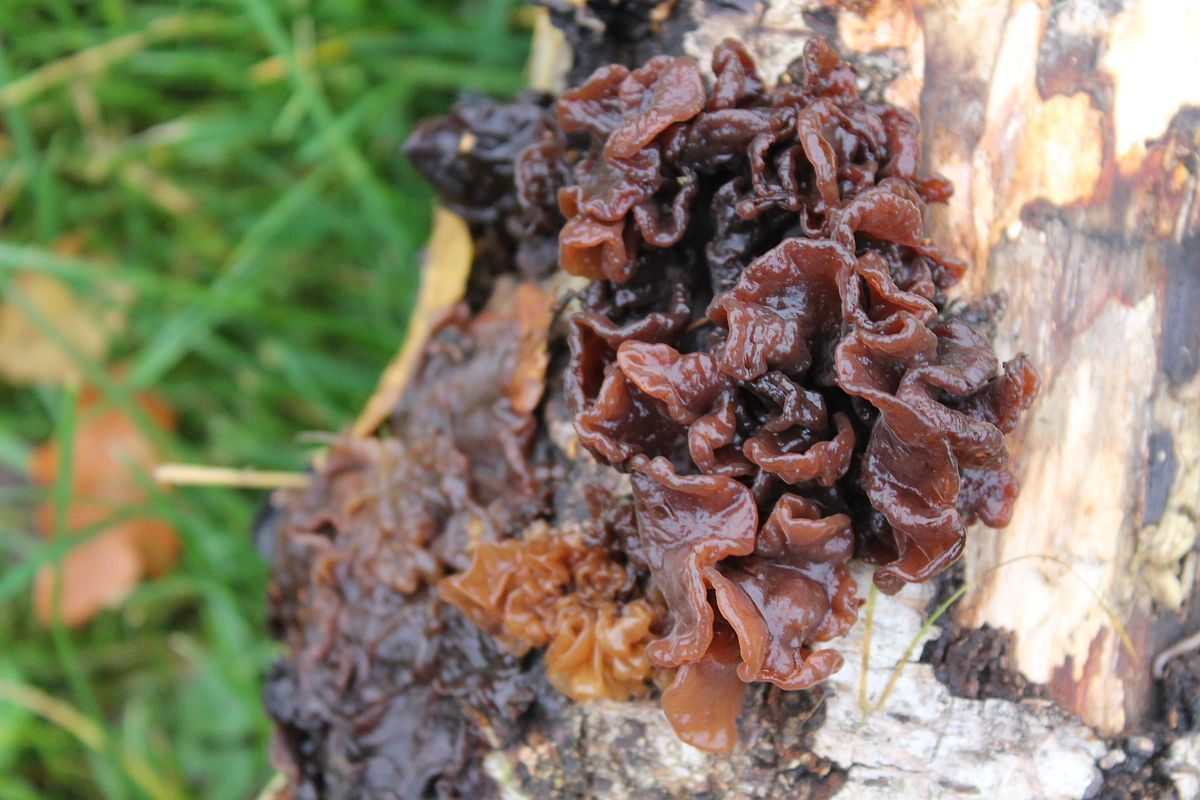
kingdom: Fungi
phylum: Basidiomycota
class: Tremellomycetes
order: Tremellales
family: Tremellaceae
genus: Phaeotremella
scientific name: Phaeotremella frondosa
